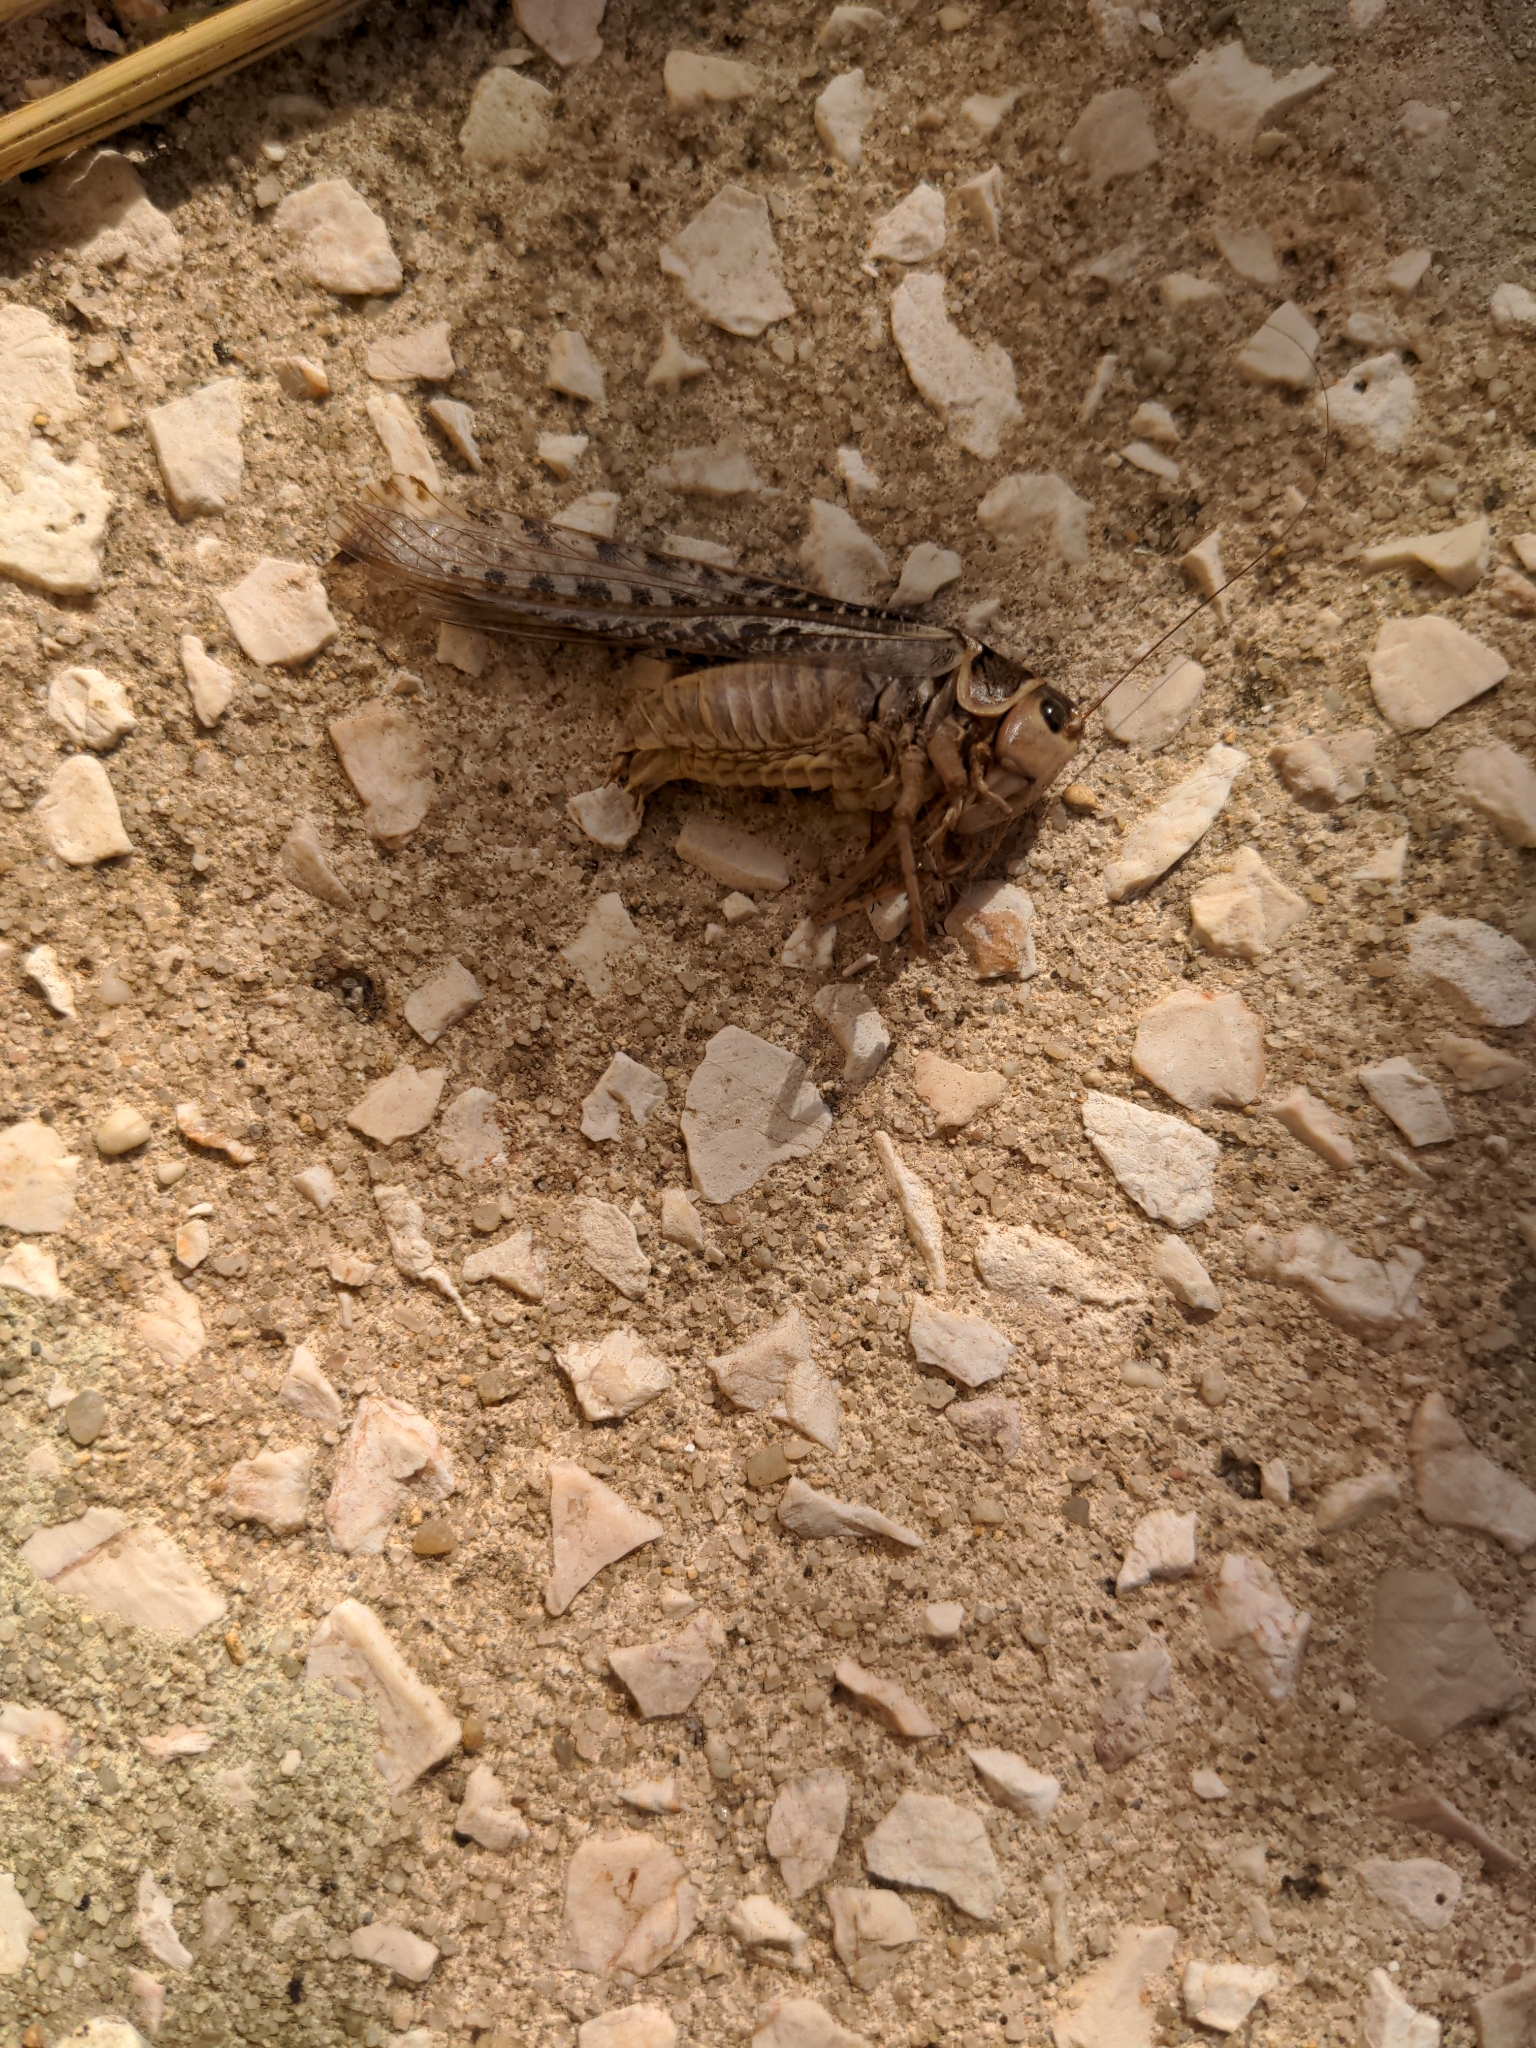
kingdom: Animalia
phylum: Arthropoda
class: Insecta
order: Orthoptera
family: Tettigoniidae
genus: Decticus
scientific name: Decticus albifrons
